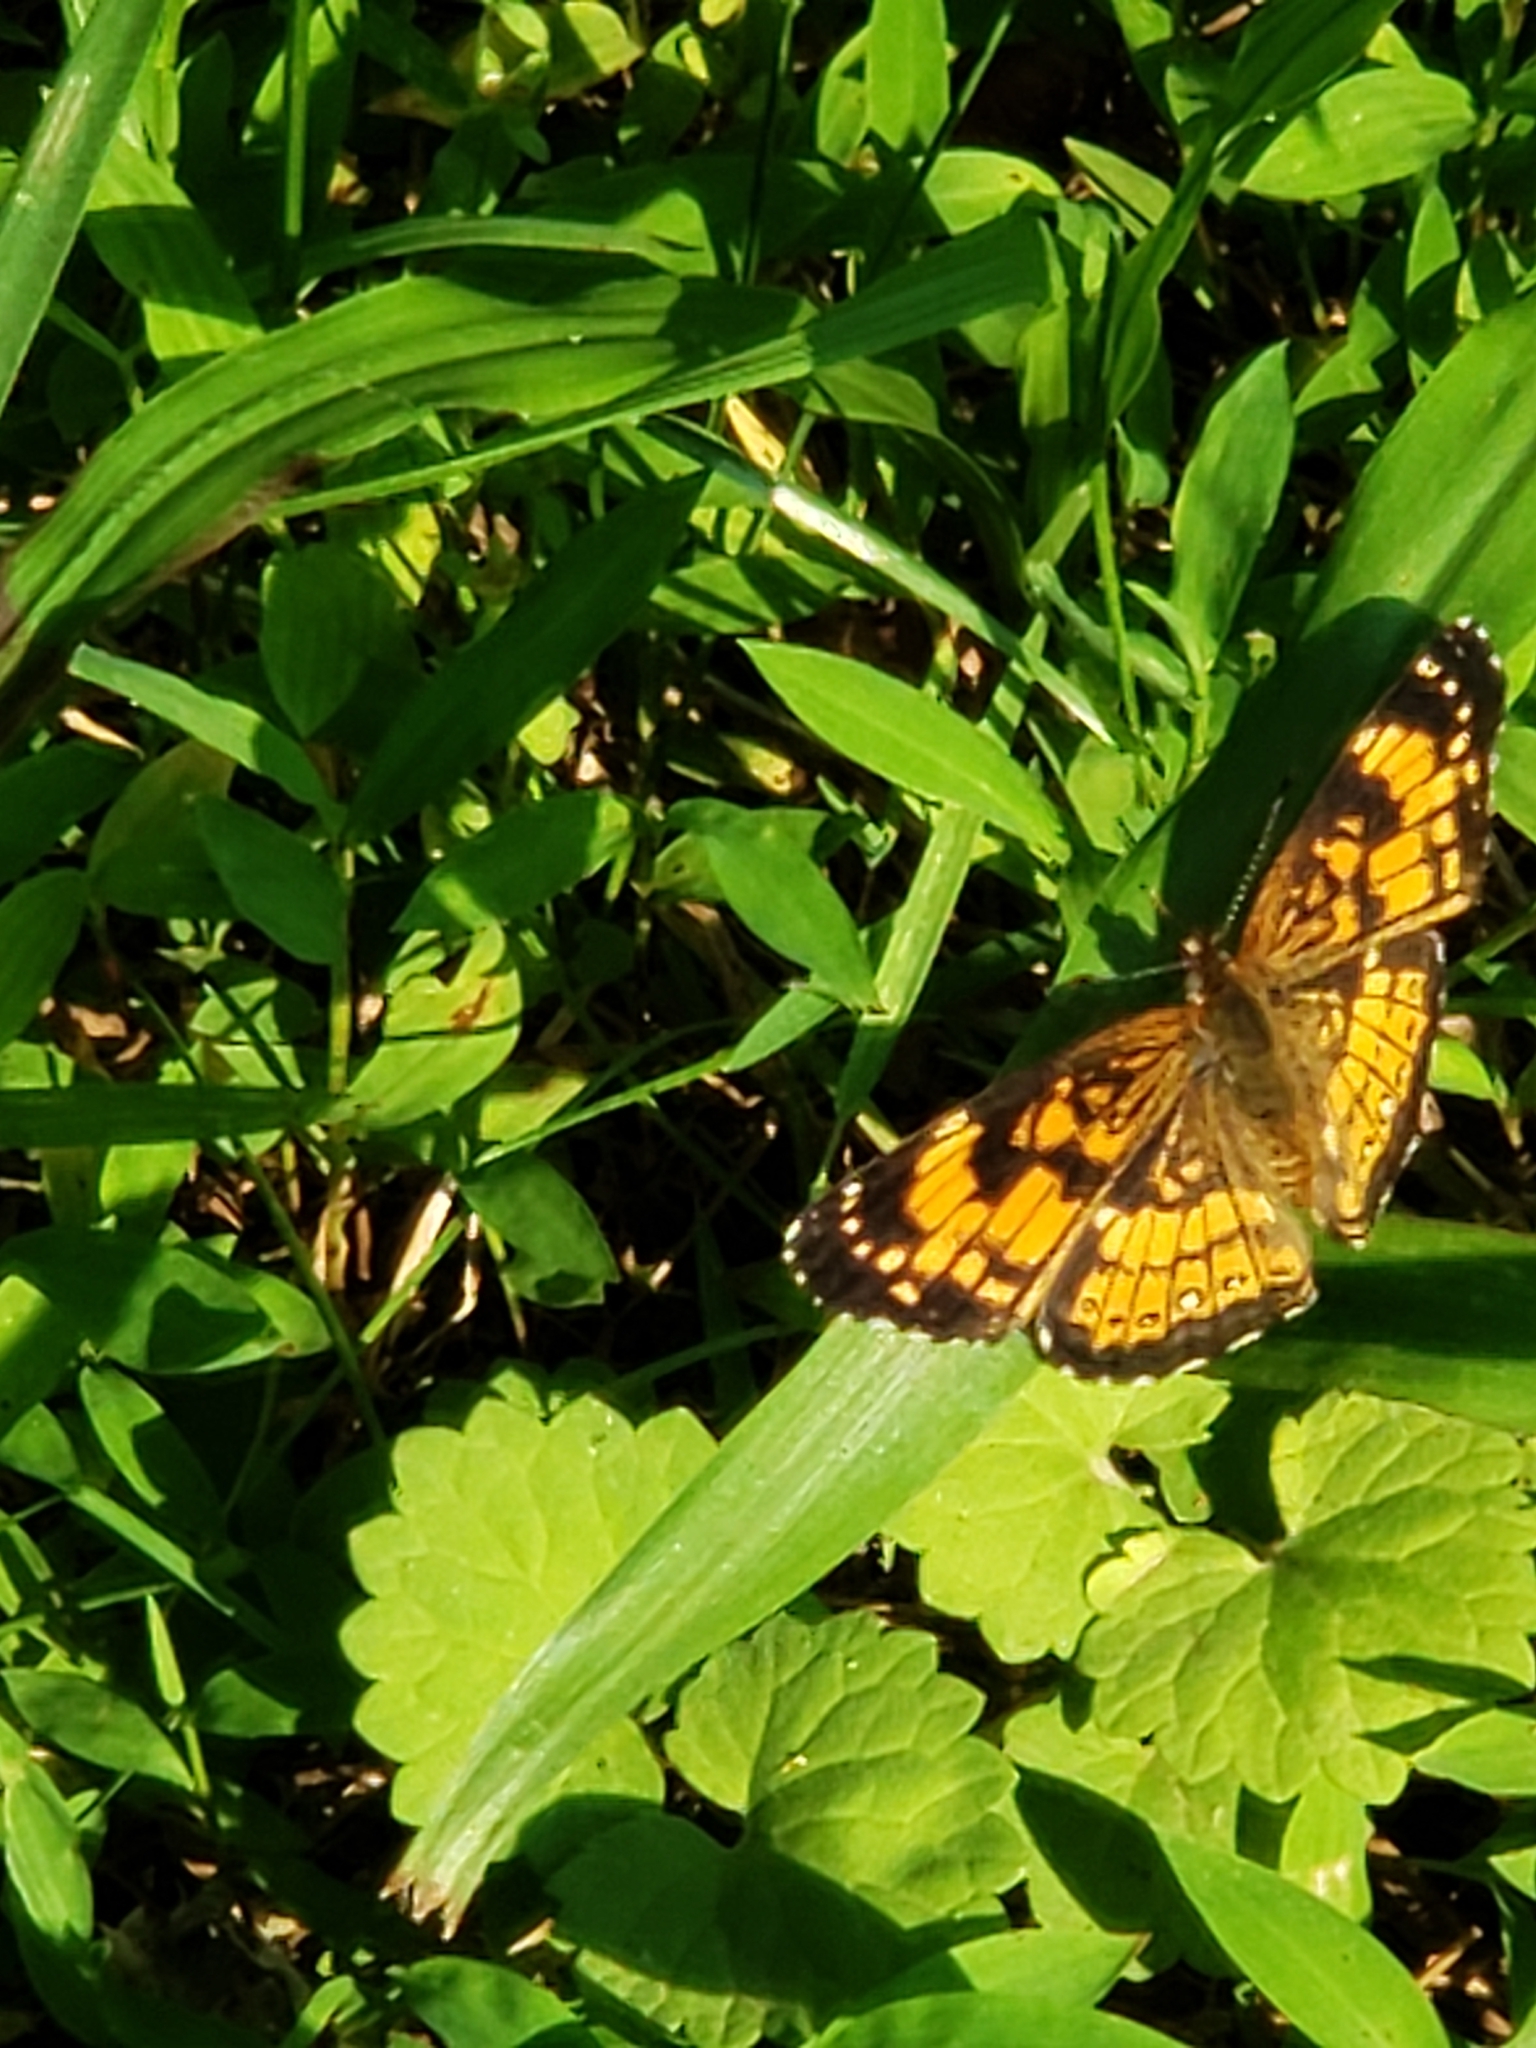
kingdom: Animalia
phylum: Arthropoda
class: Insecta
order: Lepidoptera
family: Nymphalidae
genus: Chlosyne
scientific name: Chlosyne nycteis
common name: Silvery checkerspot
